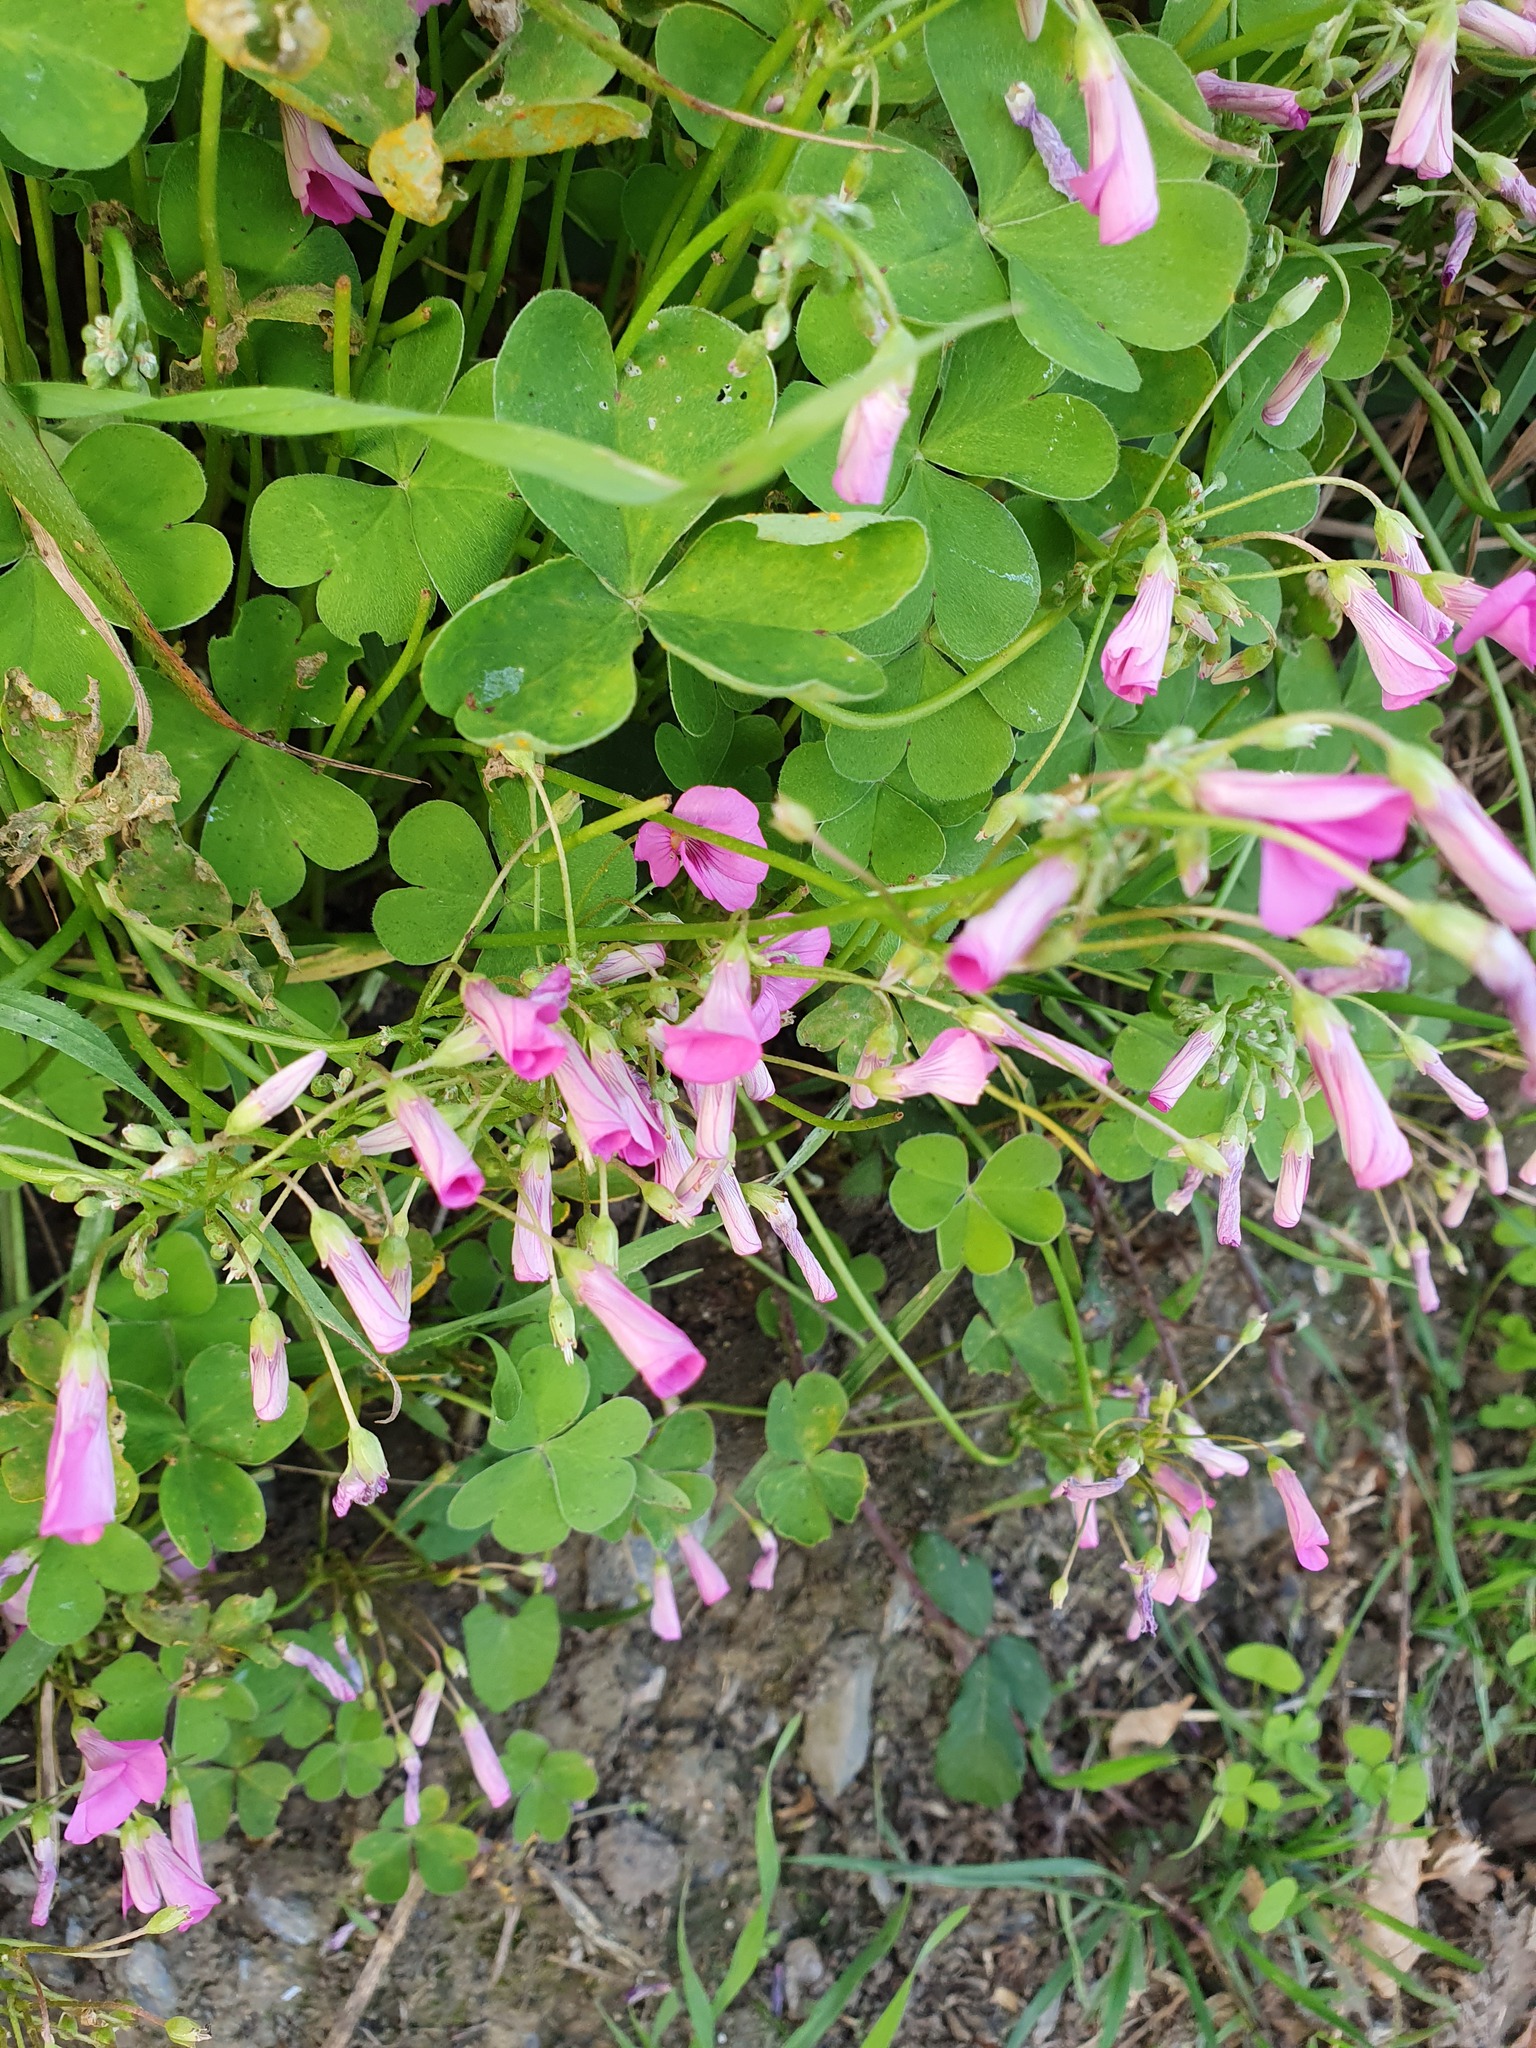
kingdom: Plantae
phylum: Tracheophyta
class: Magnoliopsida
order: Oxalidales
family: Oxalidaceae
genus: Oxalis
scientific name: Oxalis articulata
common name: Pink-sorrel
